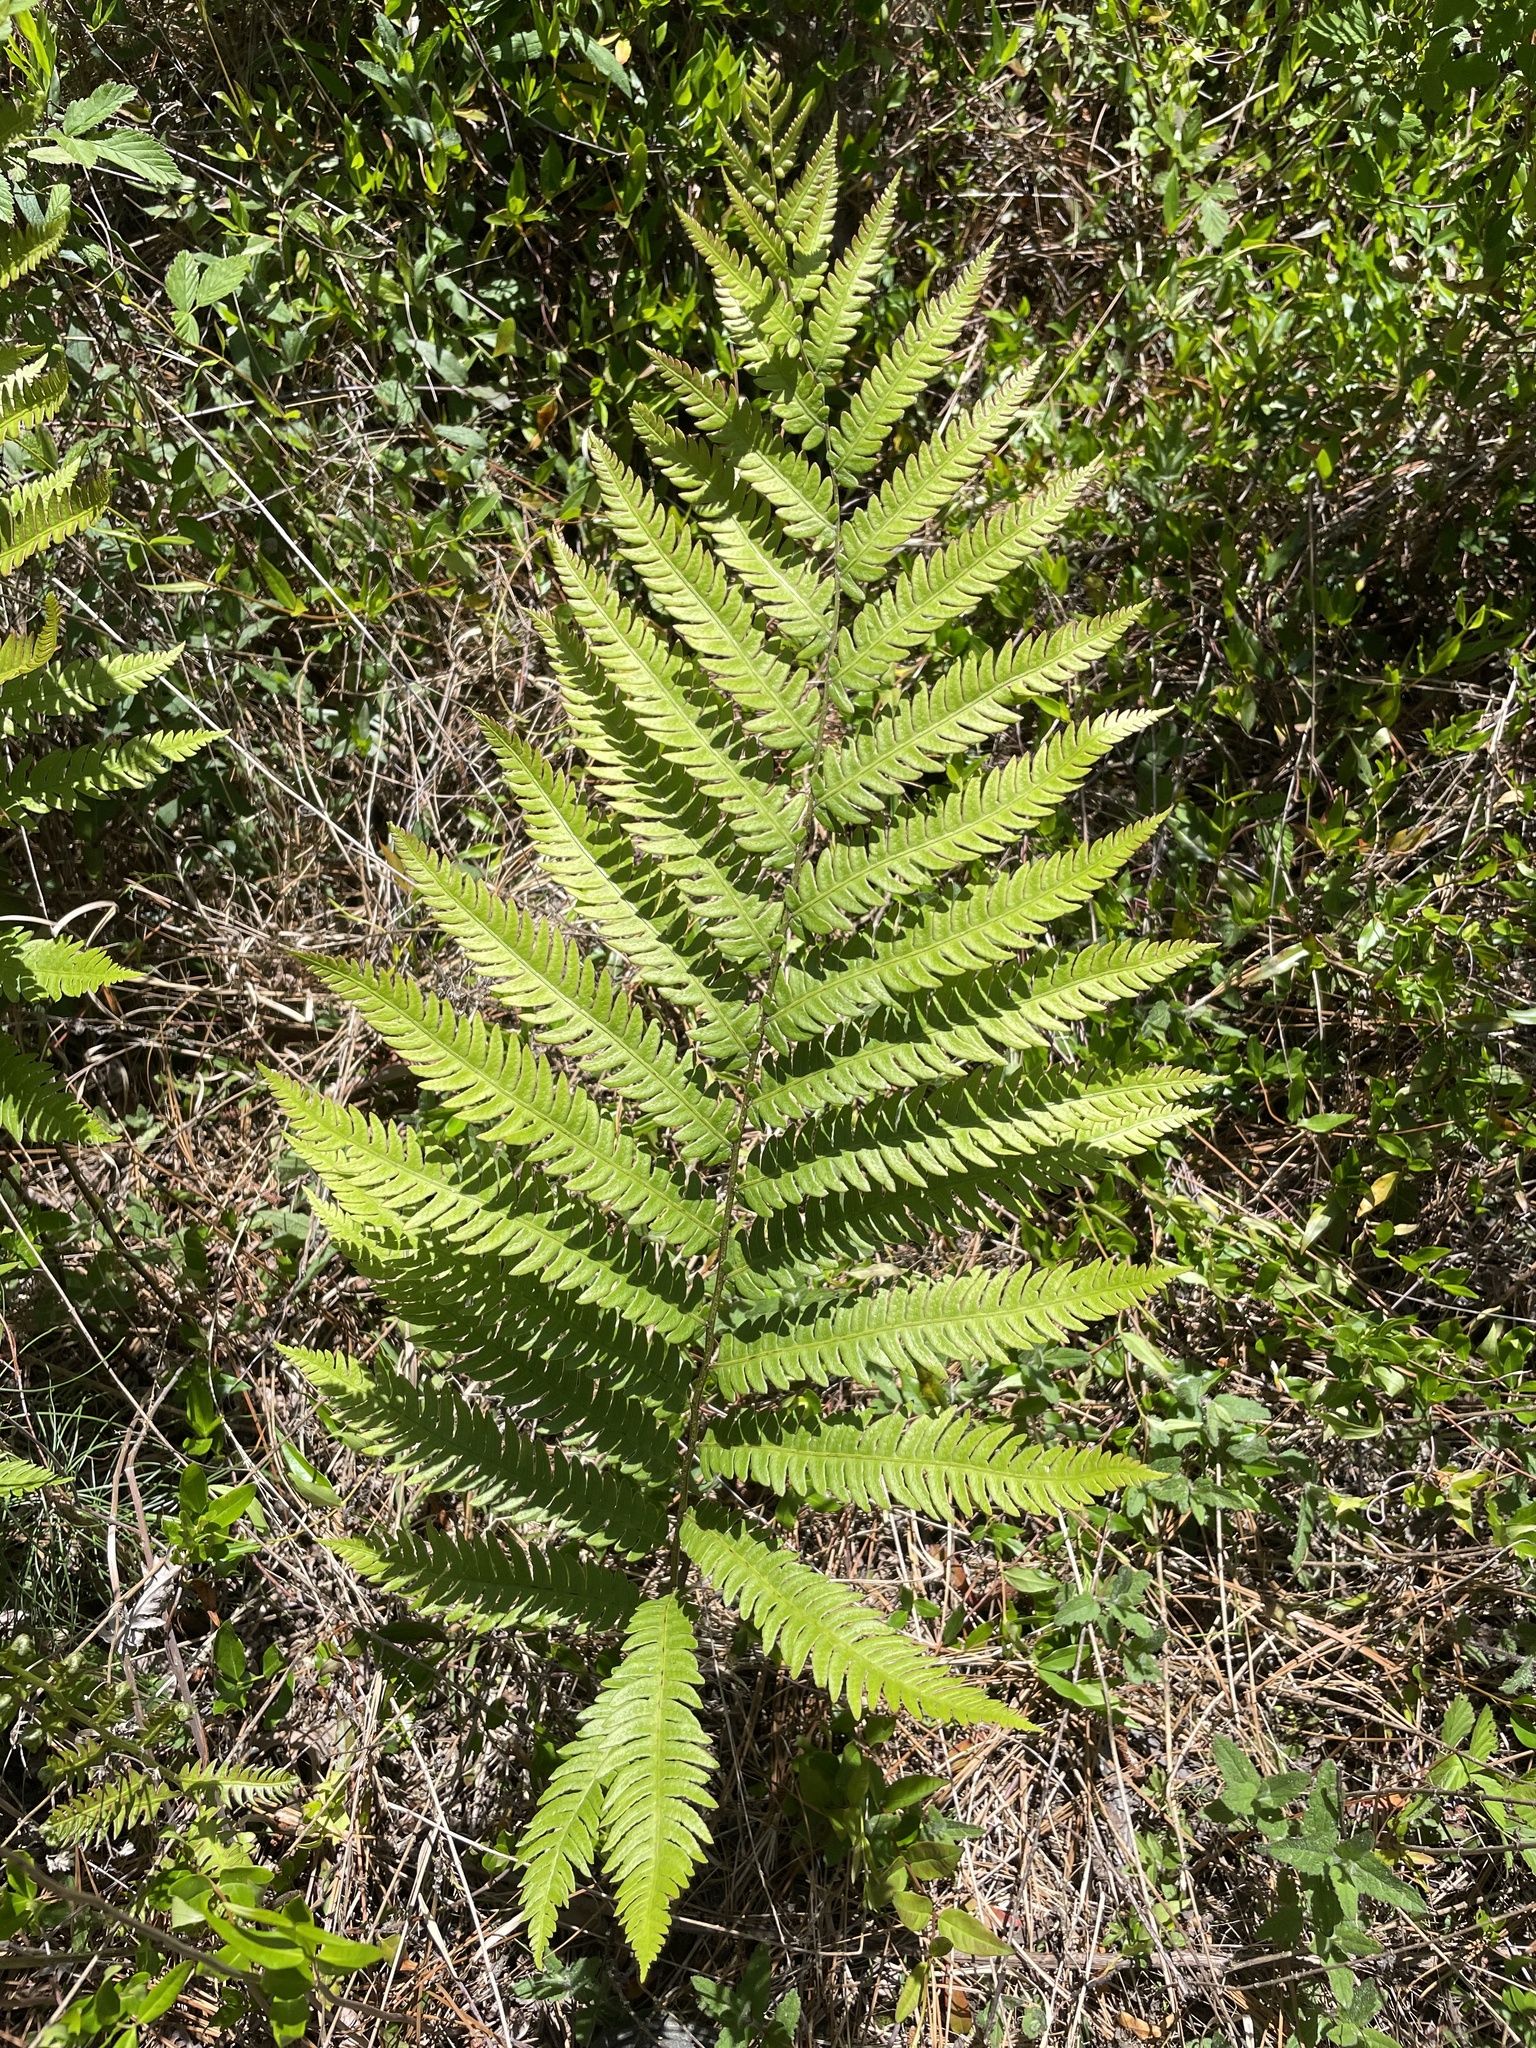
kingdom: Plantae
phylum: Tracheophyta
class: Polypodiopsida
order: Polypodiales
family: Blechnaceae
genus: Anchistea
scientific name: Anchistea virginica
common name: Virginia chain fern
